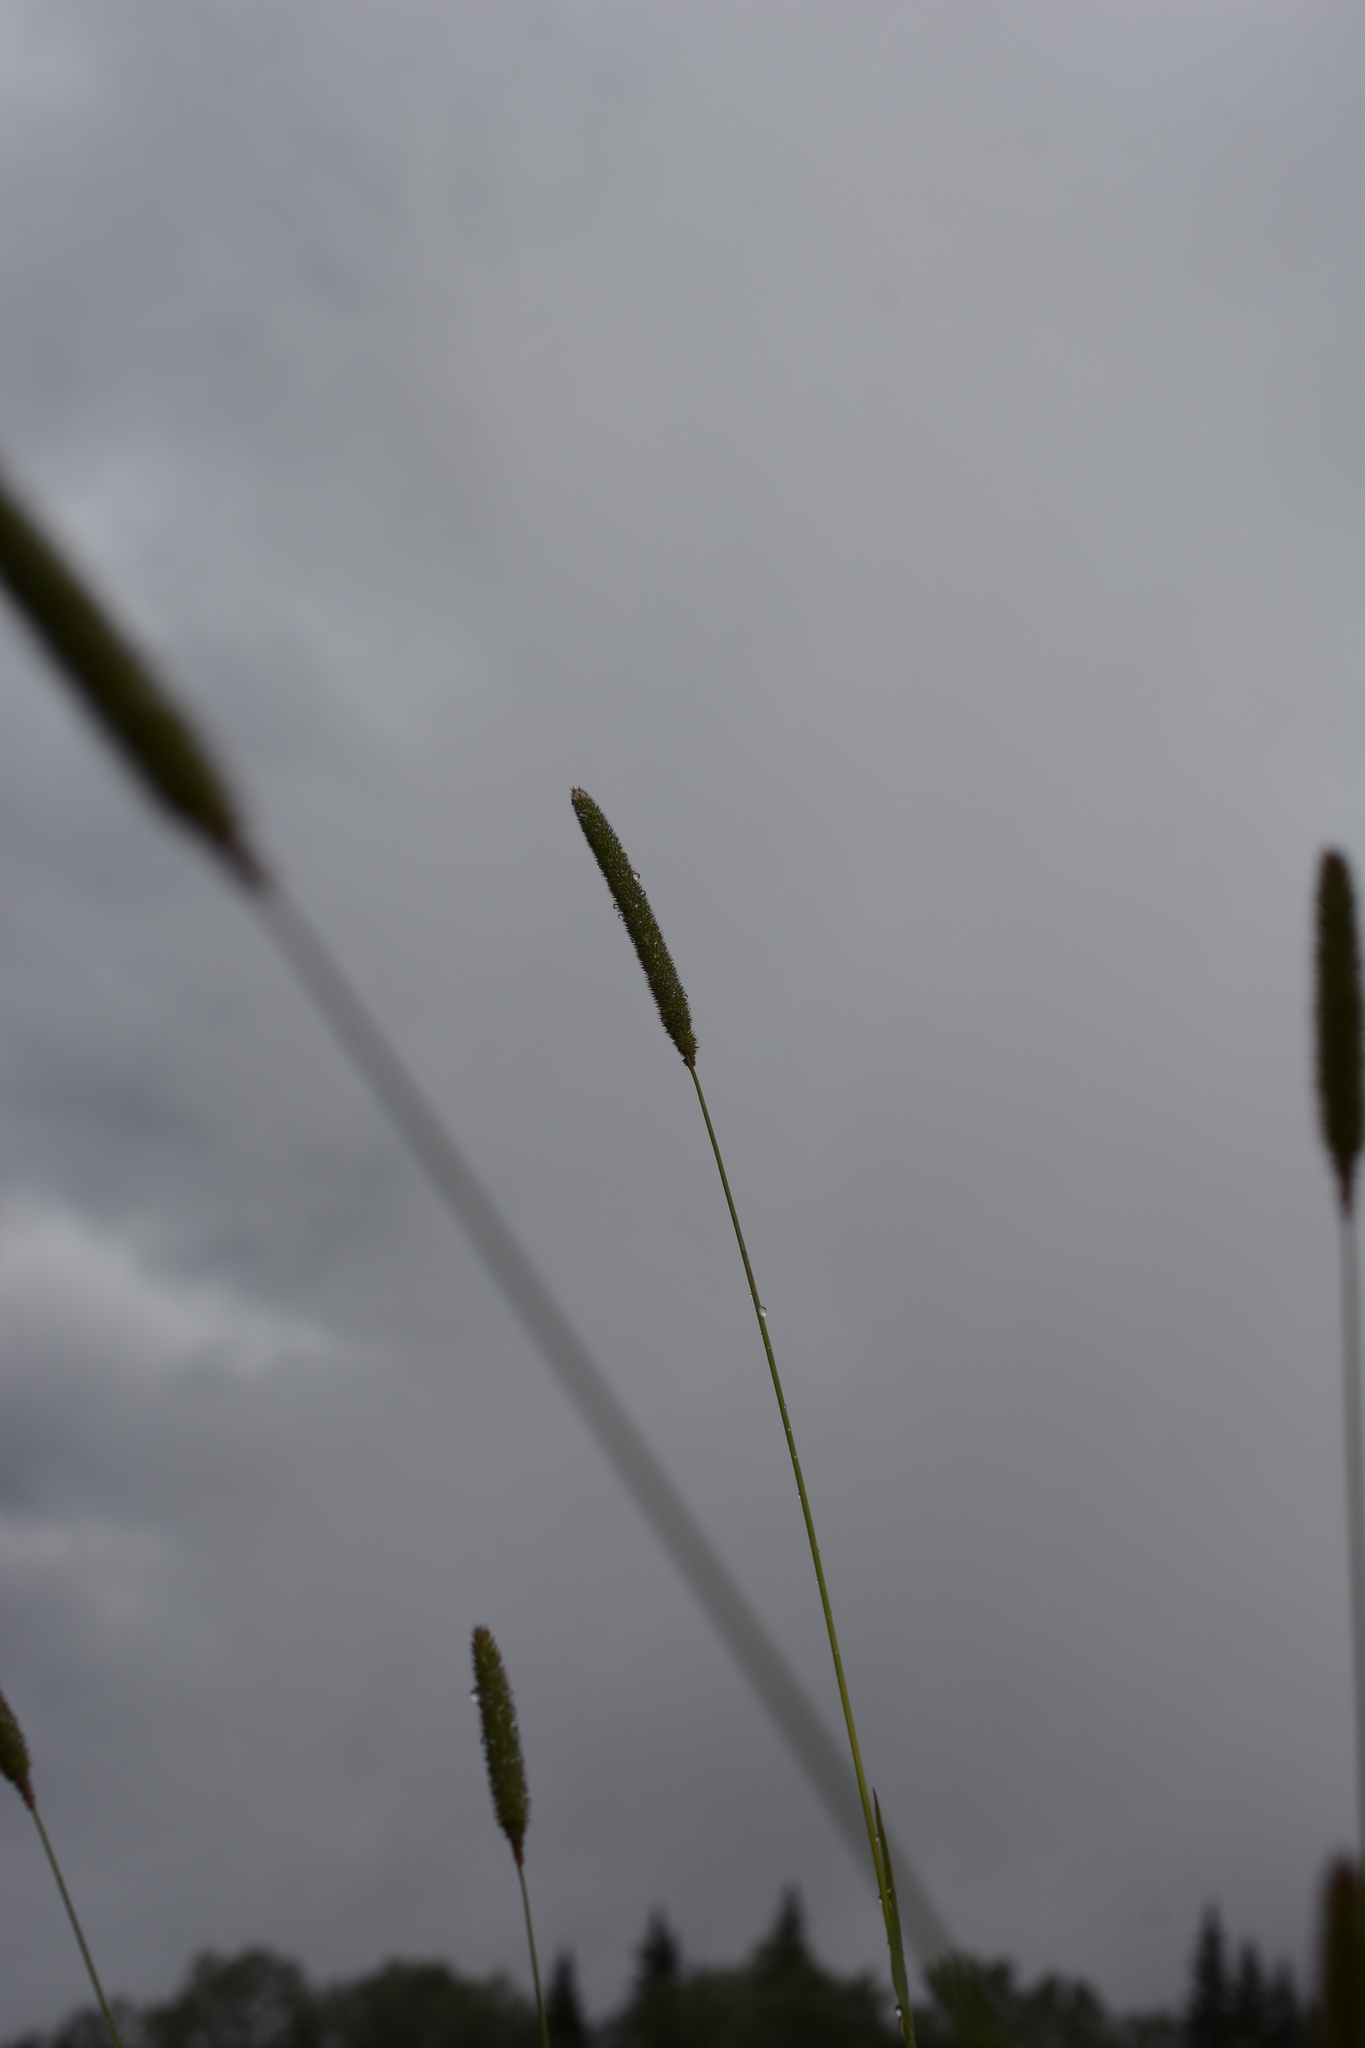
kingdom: Plantae
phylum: Tracheophyta
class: Liliopsida
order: Poales
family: Poaceae
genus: Phleum
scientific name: Phleum pratense
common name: Timothy grass
